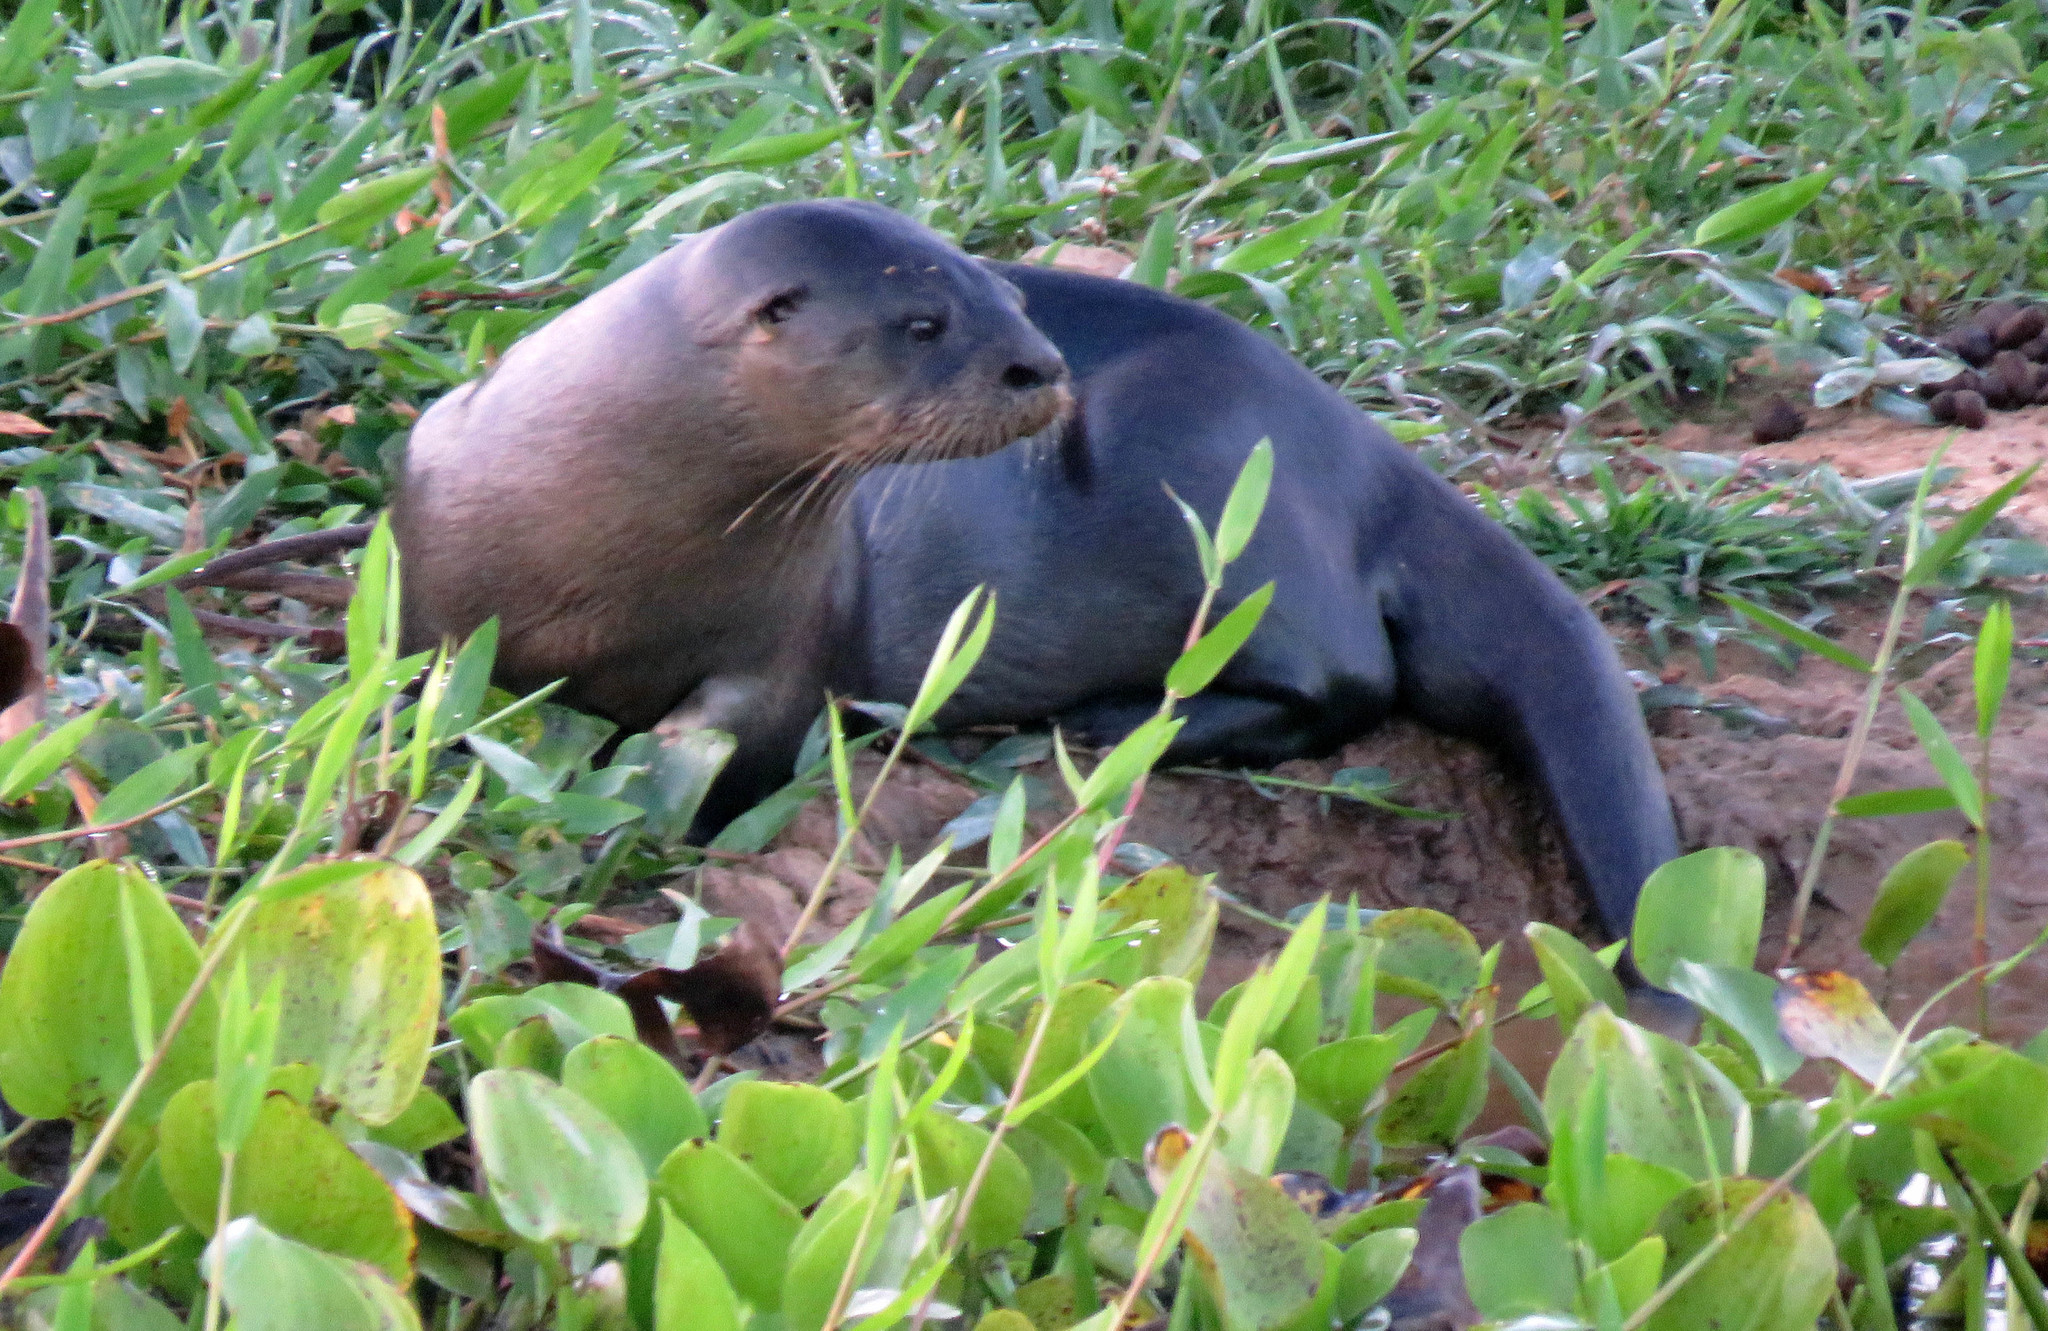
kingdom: Animalia
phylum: Chordata
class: Mammalia
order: Carnivora
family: Mustelidae
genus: Lontra
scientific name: Lontra longicaudis
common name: Neotropical otter
